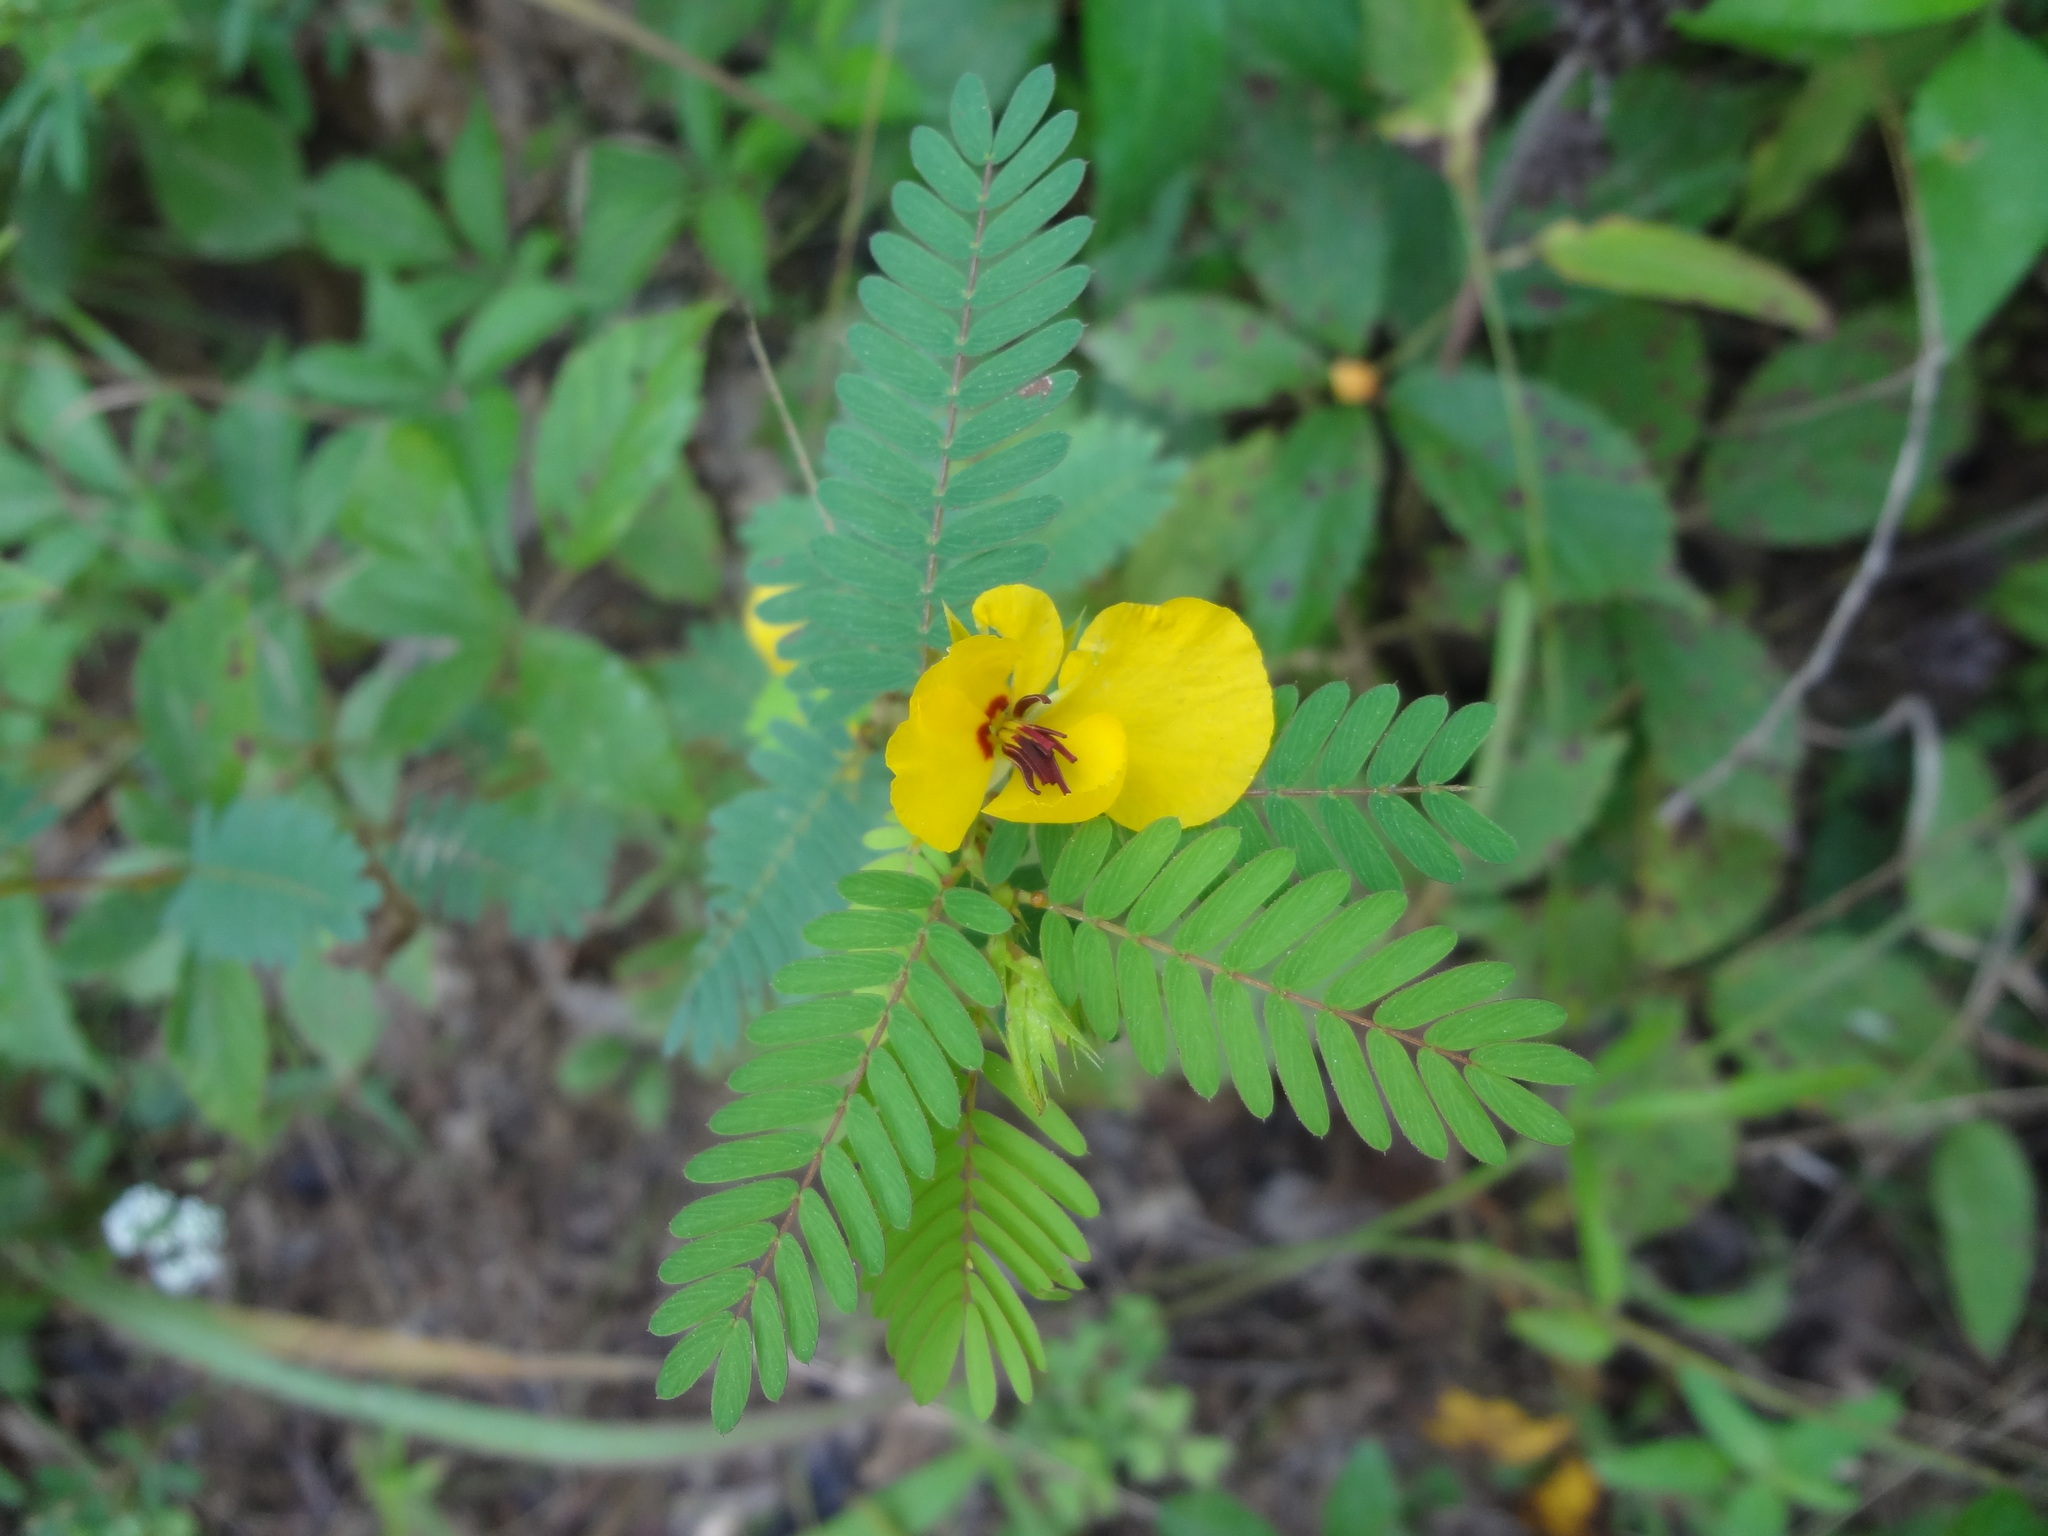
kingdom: Plantae
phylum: Tracheophyta
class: Magnoliopsida
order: Fabales
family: Fabaceae
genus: Chamaecrista
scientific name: Chamaecrista fasciculata
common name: Golden cassia
